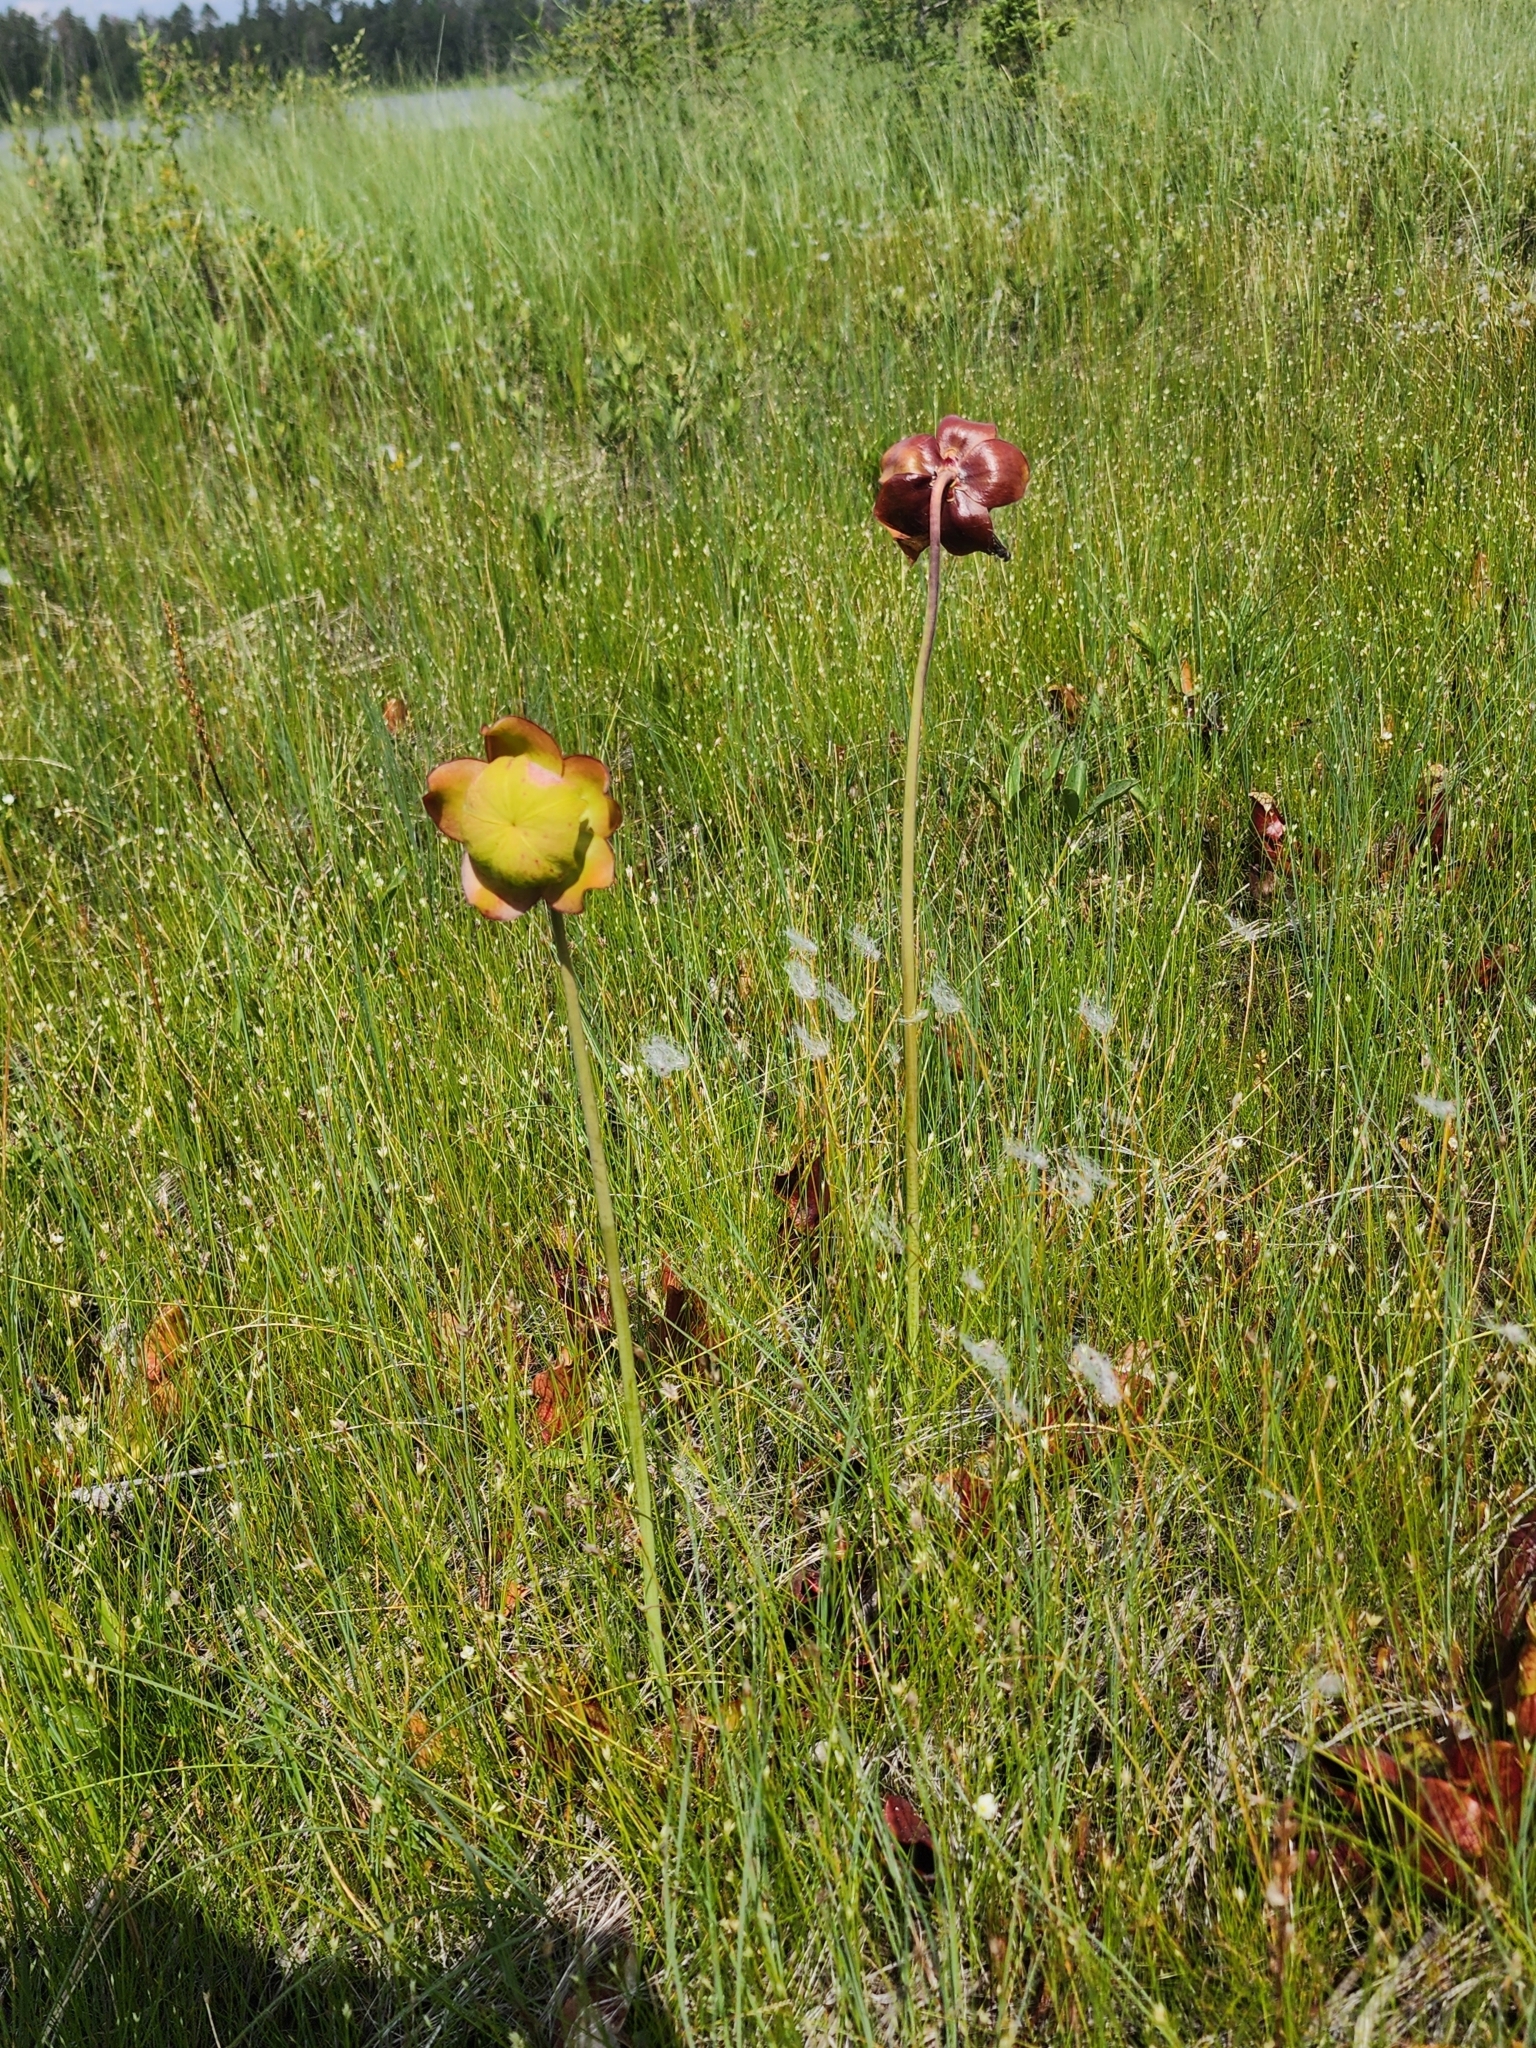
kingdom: Plantae
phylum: Tracheophyta
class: Magnoliopsida
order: Ericales
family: Sarraceniaceae
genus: Sarracenia
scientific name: Sarracenia purpurea
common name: Pitcherplant
